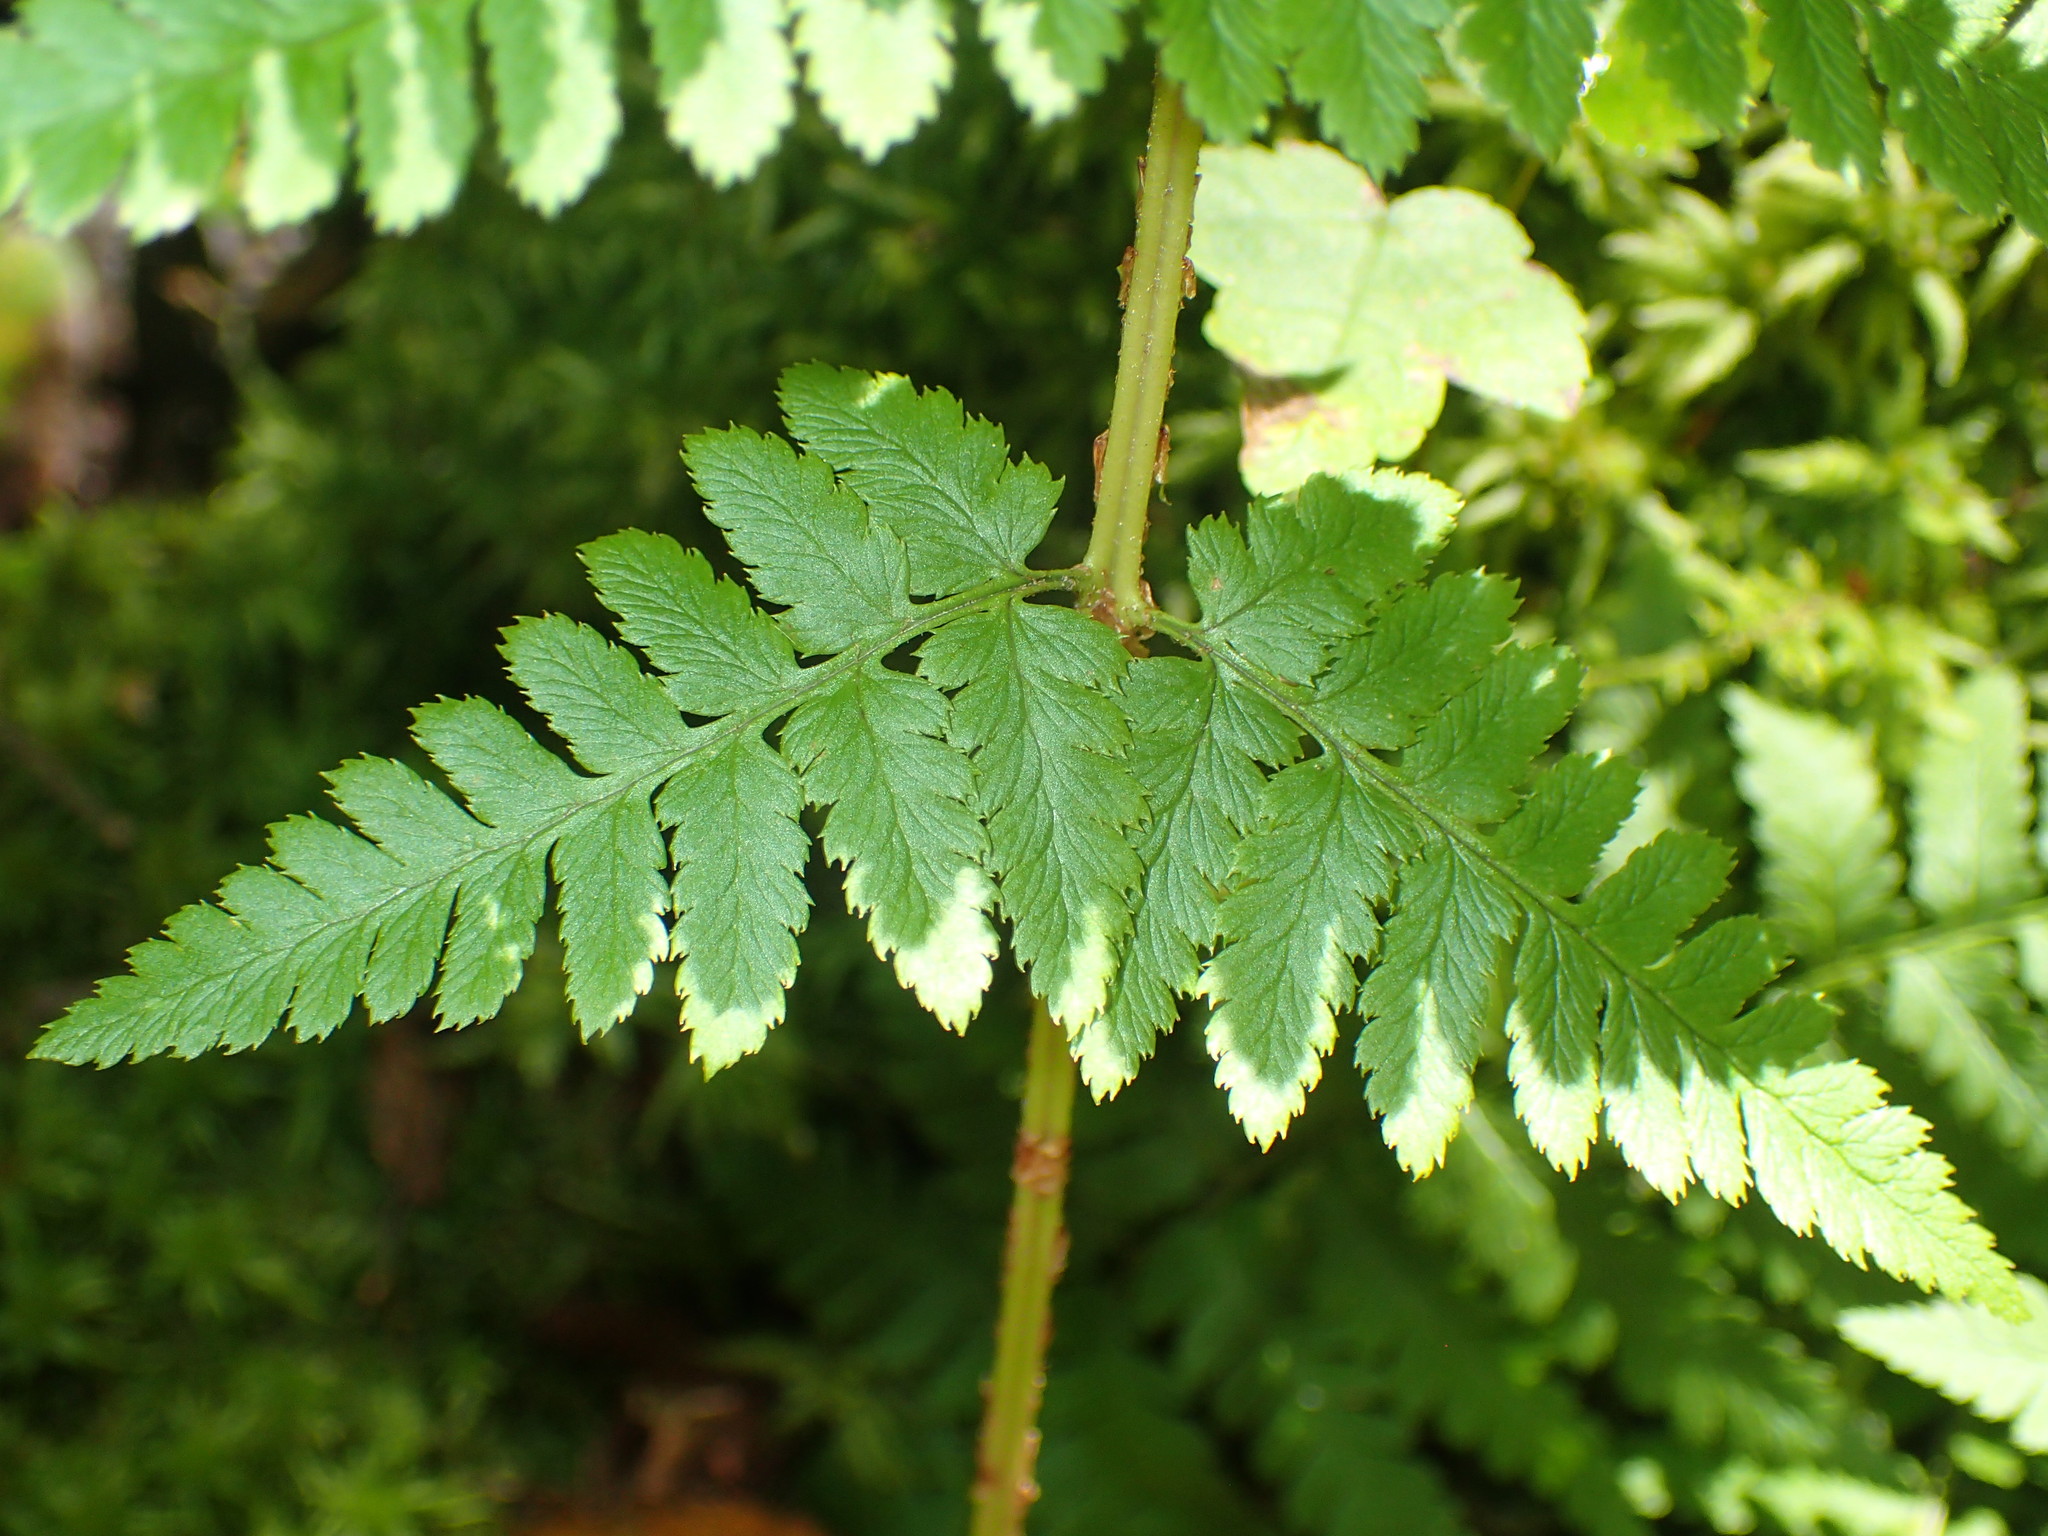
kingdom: Plantae
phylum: Tracheophyta
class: Polypodiopsida
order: Polypodiales
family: Dryopteridaceae
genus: Dryopteris
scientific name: Dryopteris intermedia
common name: Evergreen wood fern
